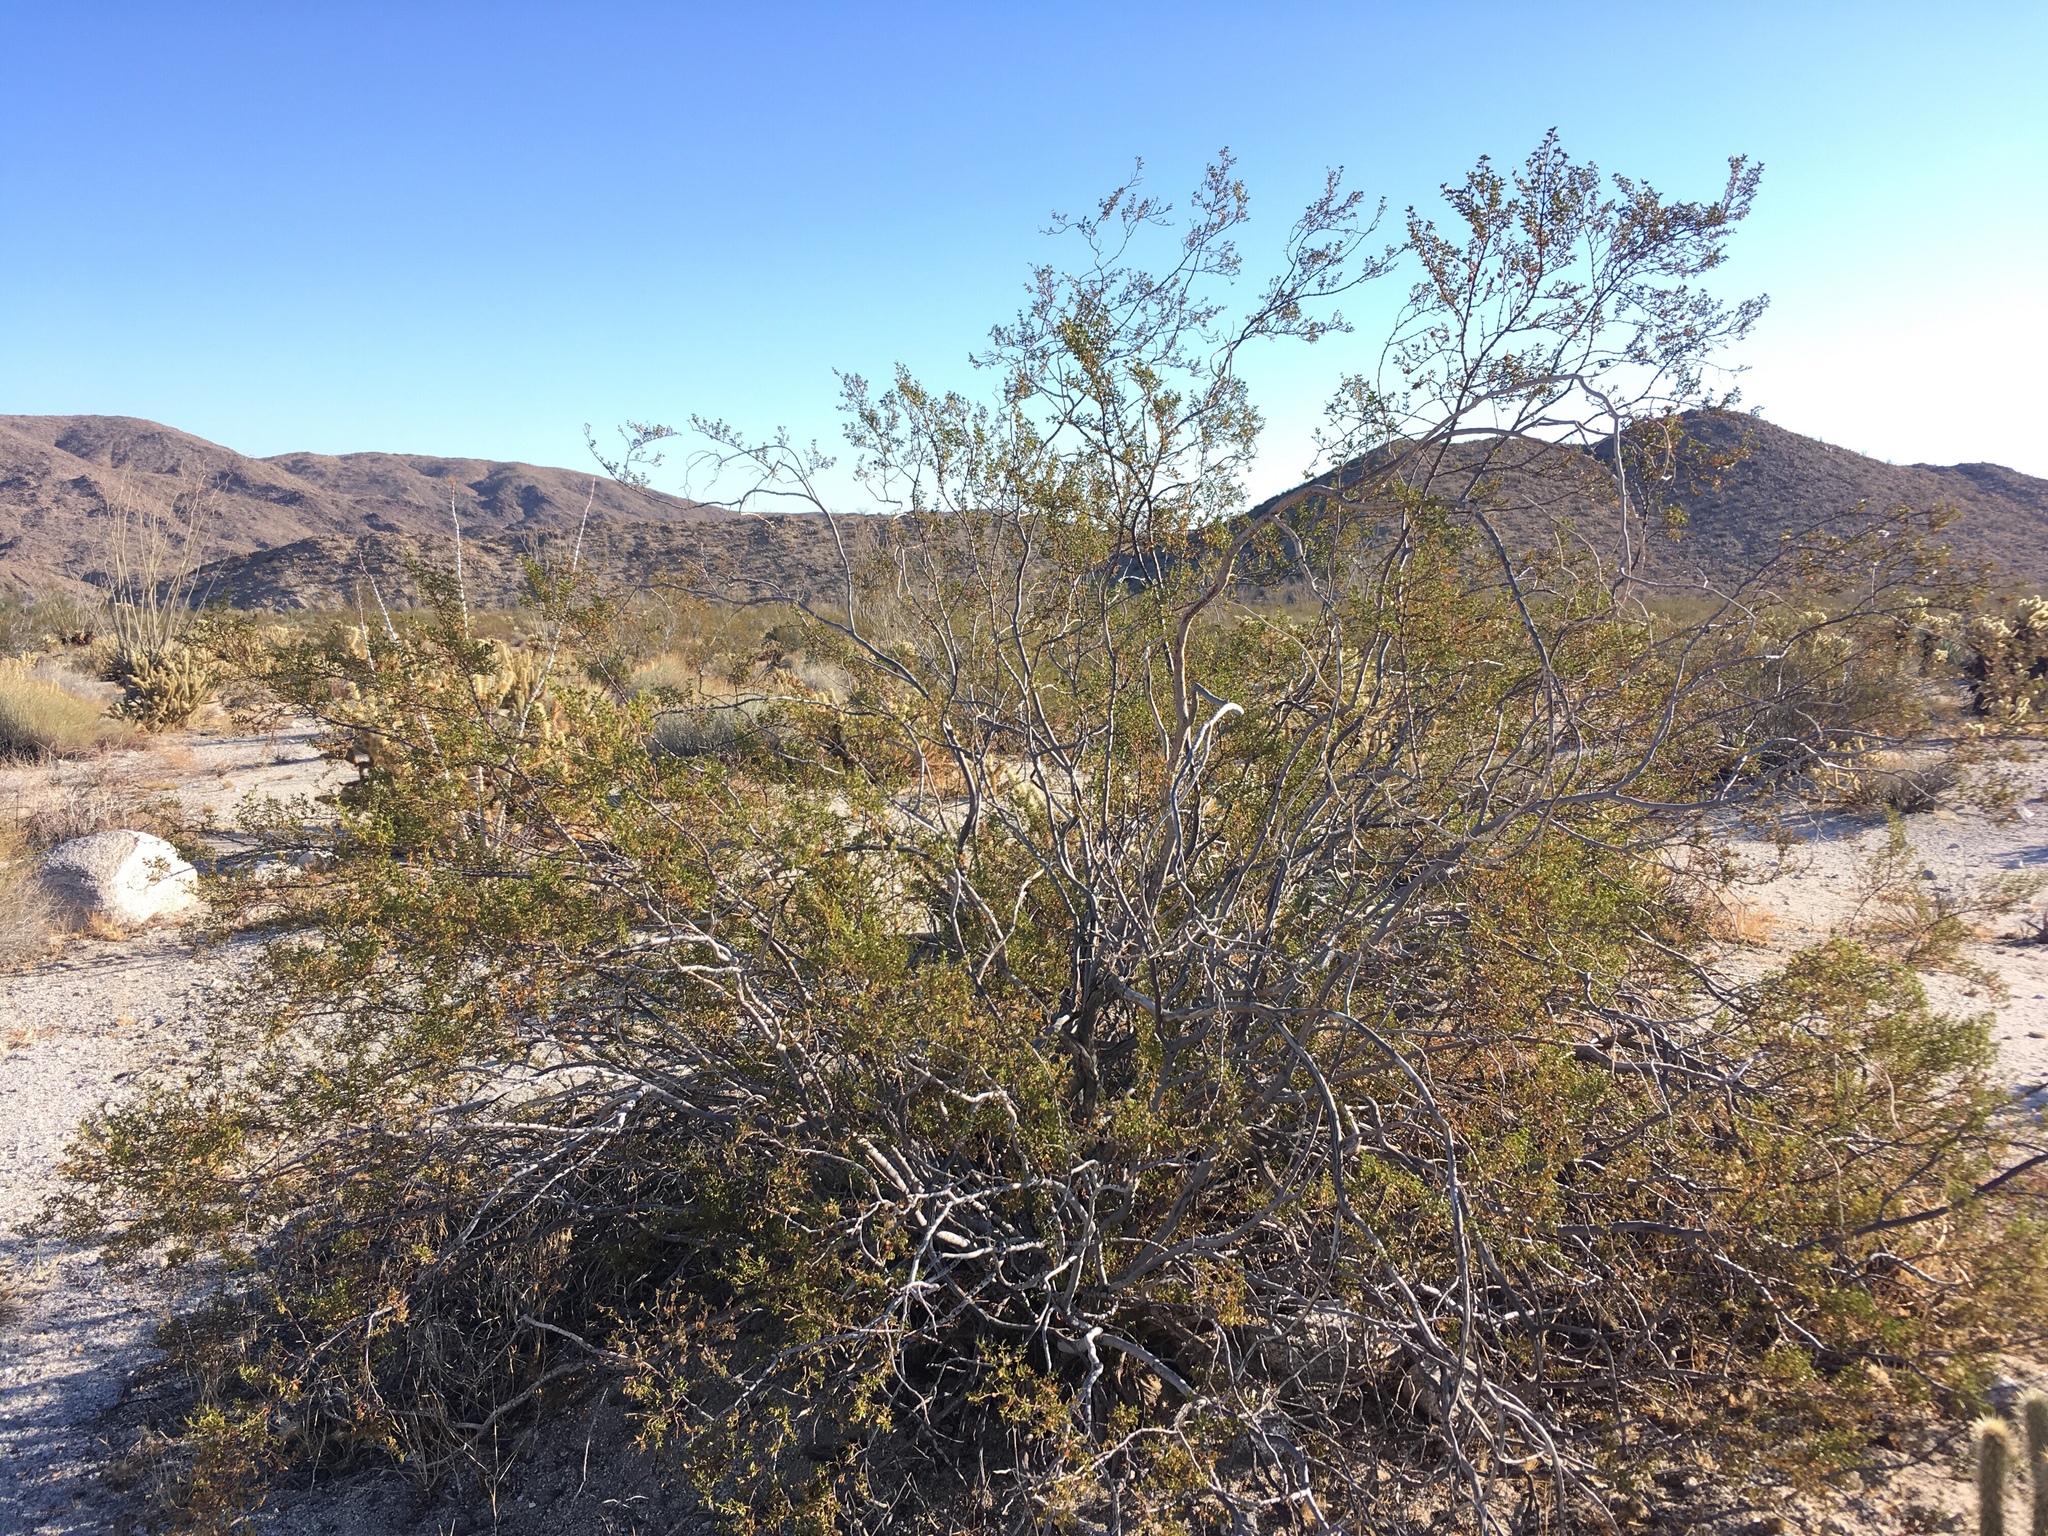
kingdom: Animalia
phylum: Arthropoda
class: Insecta
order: Diptera
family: Cecidomyiidae
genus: Asphondylia
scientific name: Asphondylia auripila
